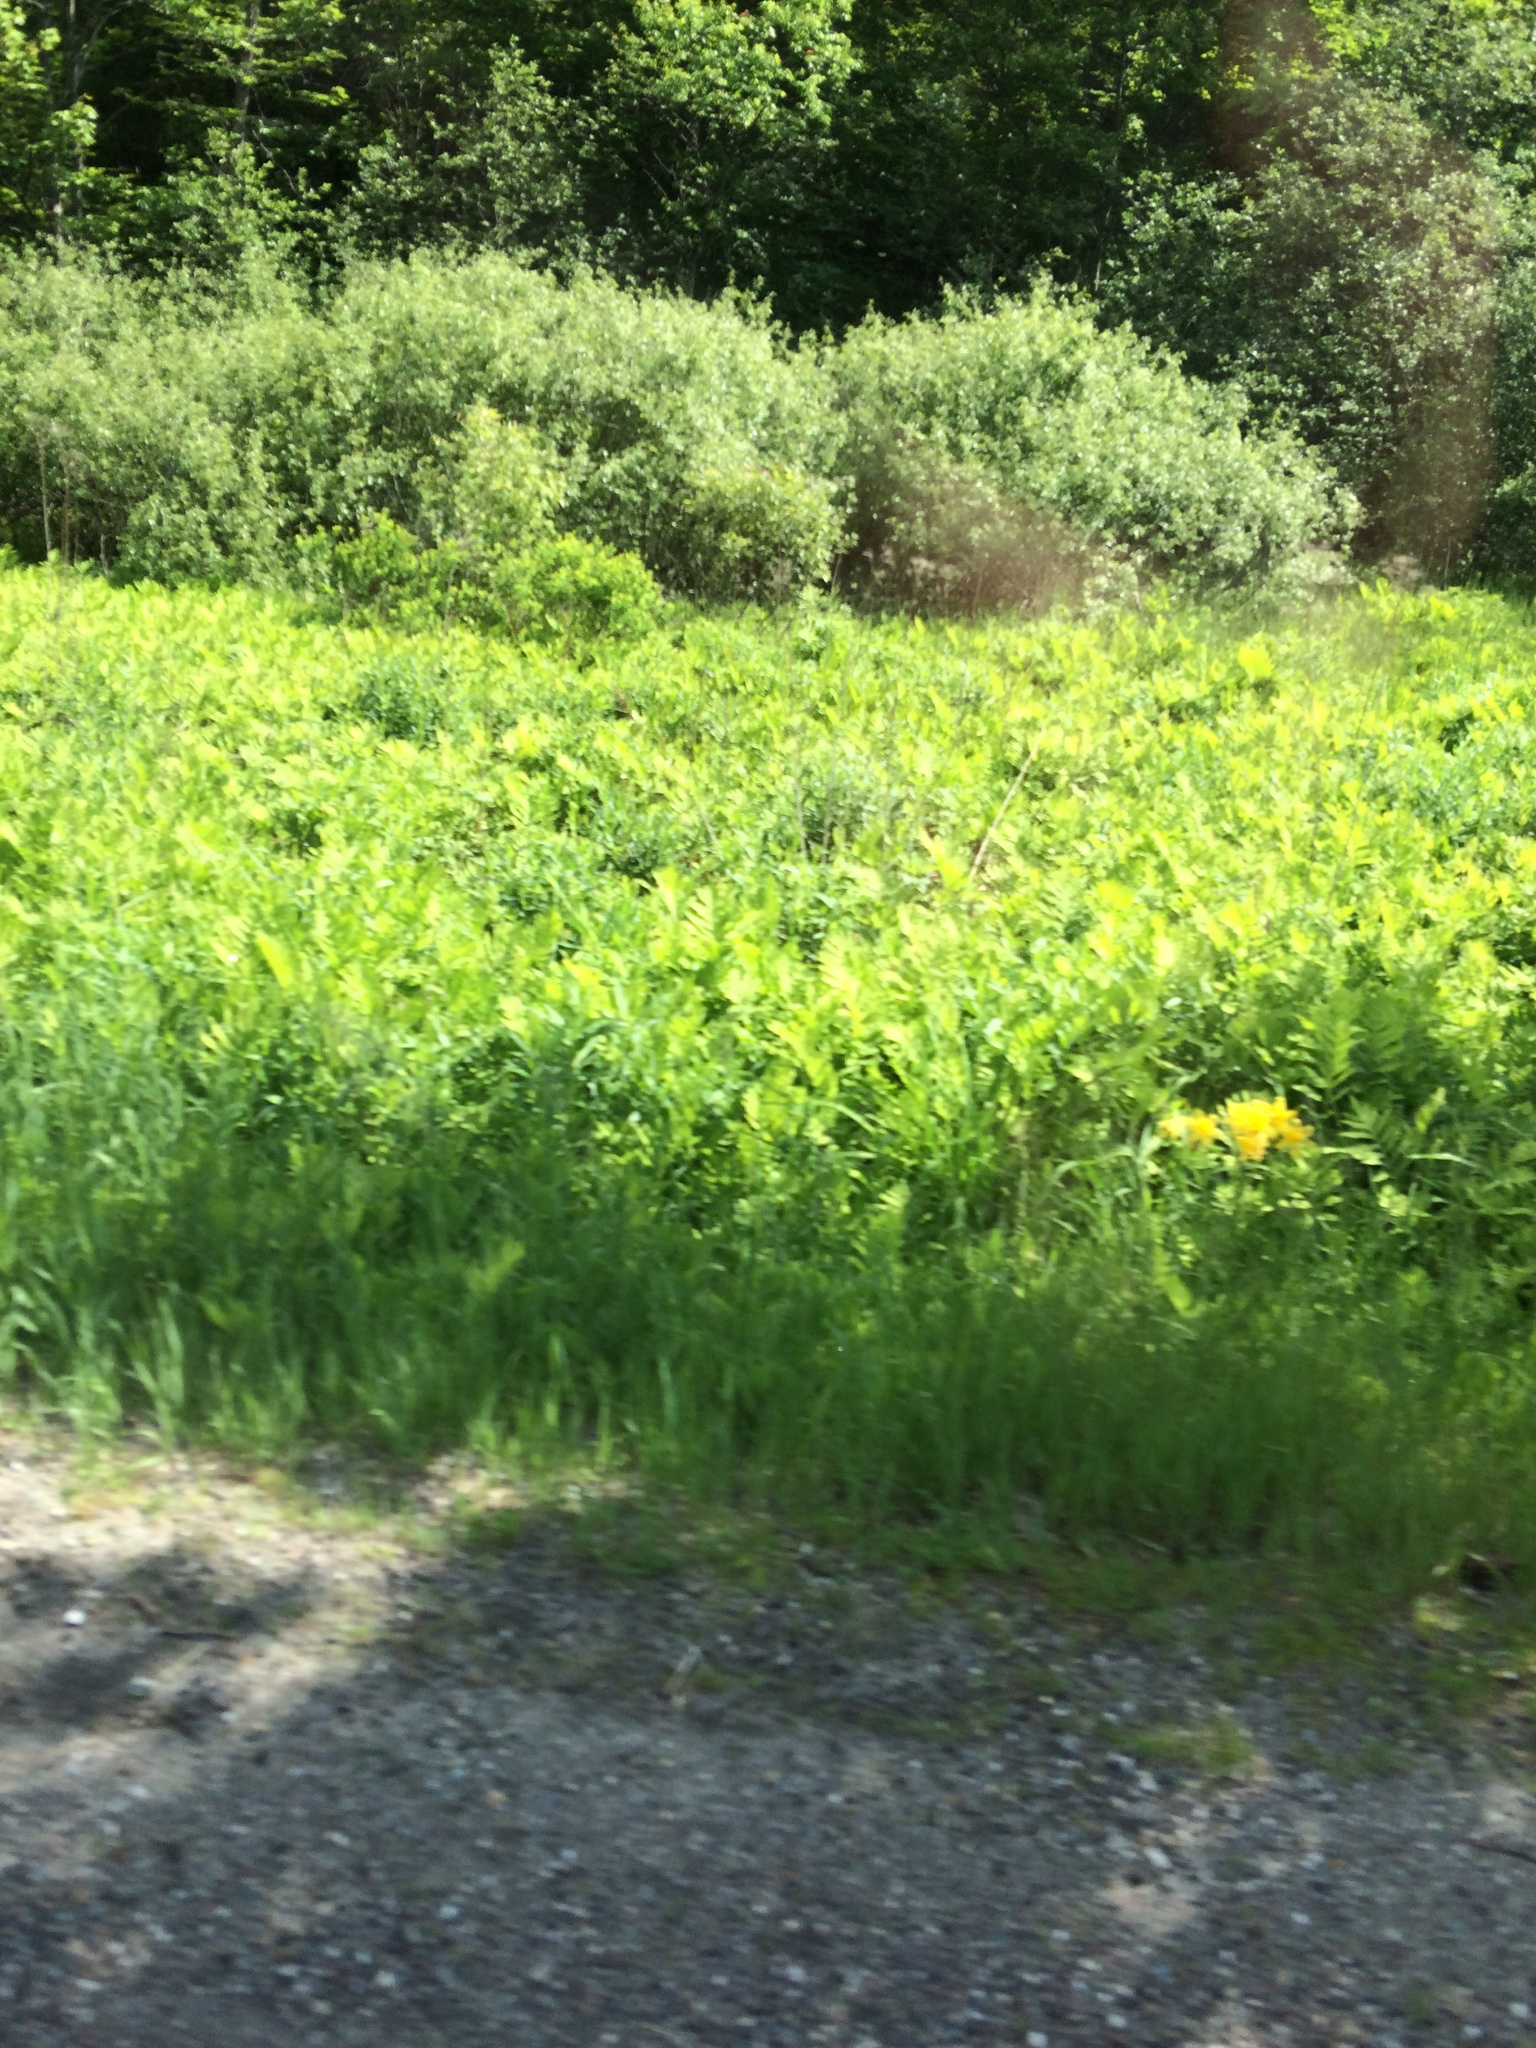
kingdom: Plantae
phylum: Tracheophyta
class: Polypodiopsida
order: Polypodiales
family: Onocleaceae
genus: Onoclea
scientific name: Onoclea sensibilis
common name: Sensitive fern
